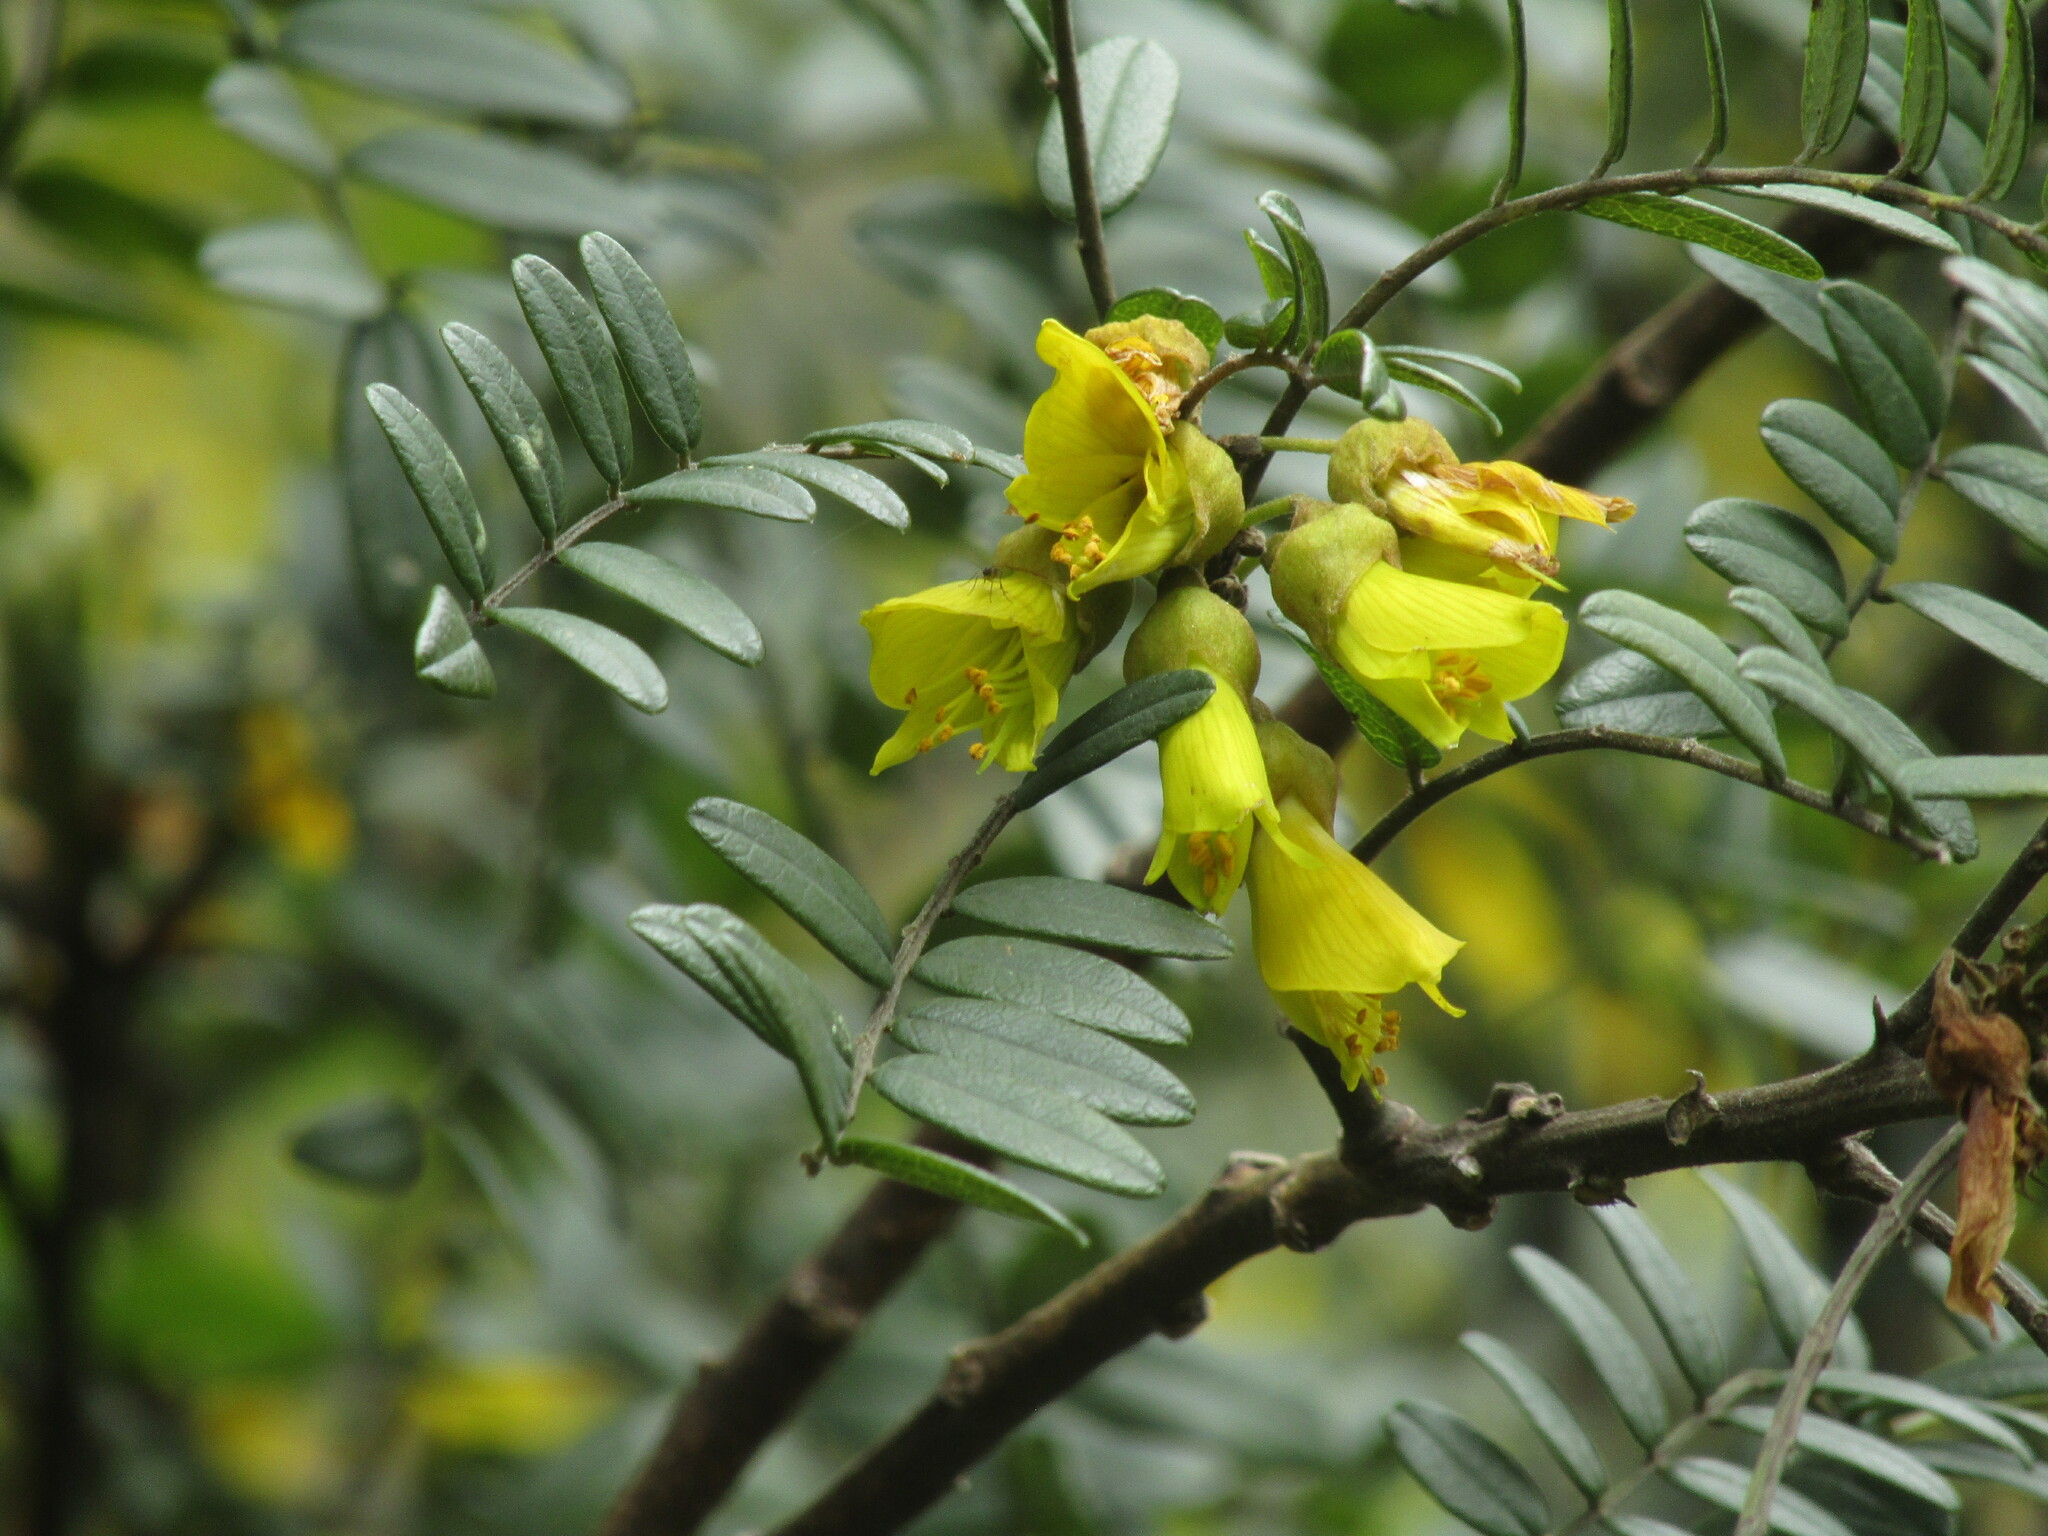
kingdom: Plantae
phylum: Tracheophyta
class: Magnoliopsida
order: Fabales
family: Fabaceae
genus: Sophora
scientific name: Sophora macrocarpa
